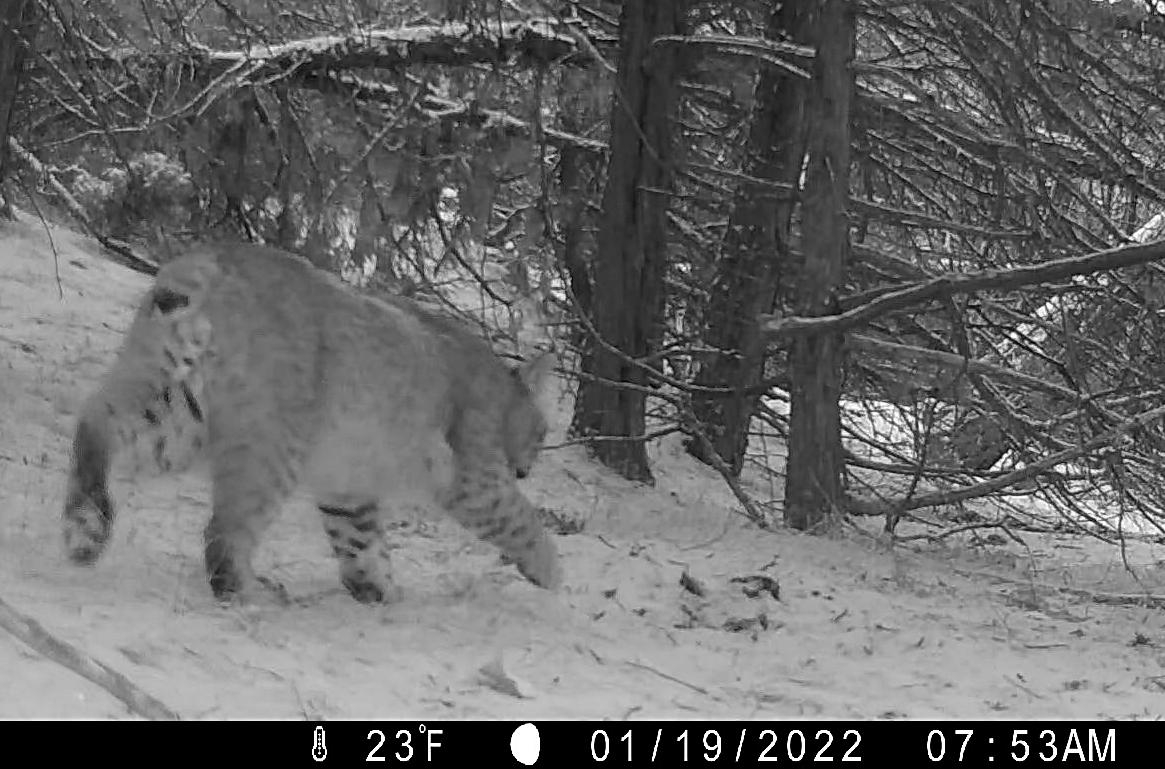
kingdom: Animalia
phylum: Chordata
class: Mammalia
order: Carnivora
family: Felidae
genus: Lynx
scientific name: Lynx rufus
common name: Bobcat
